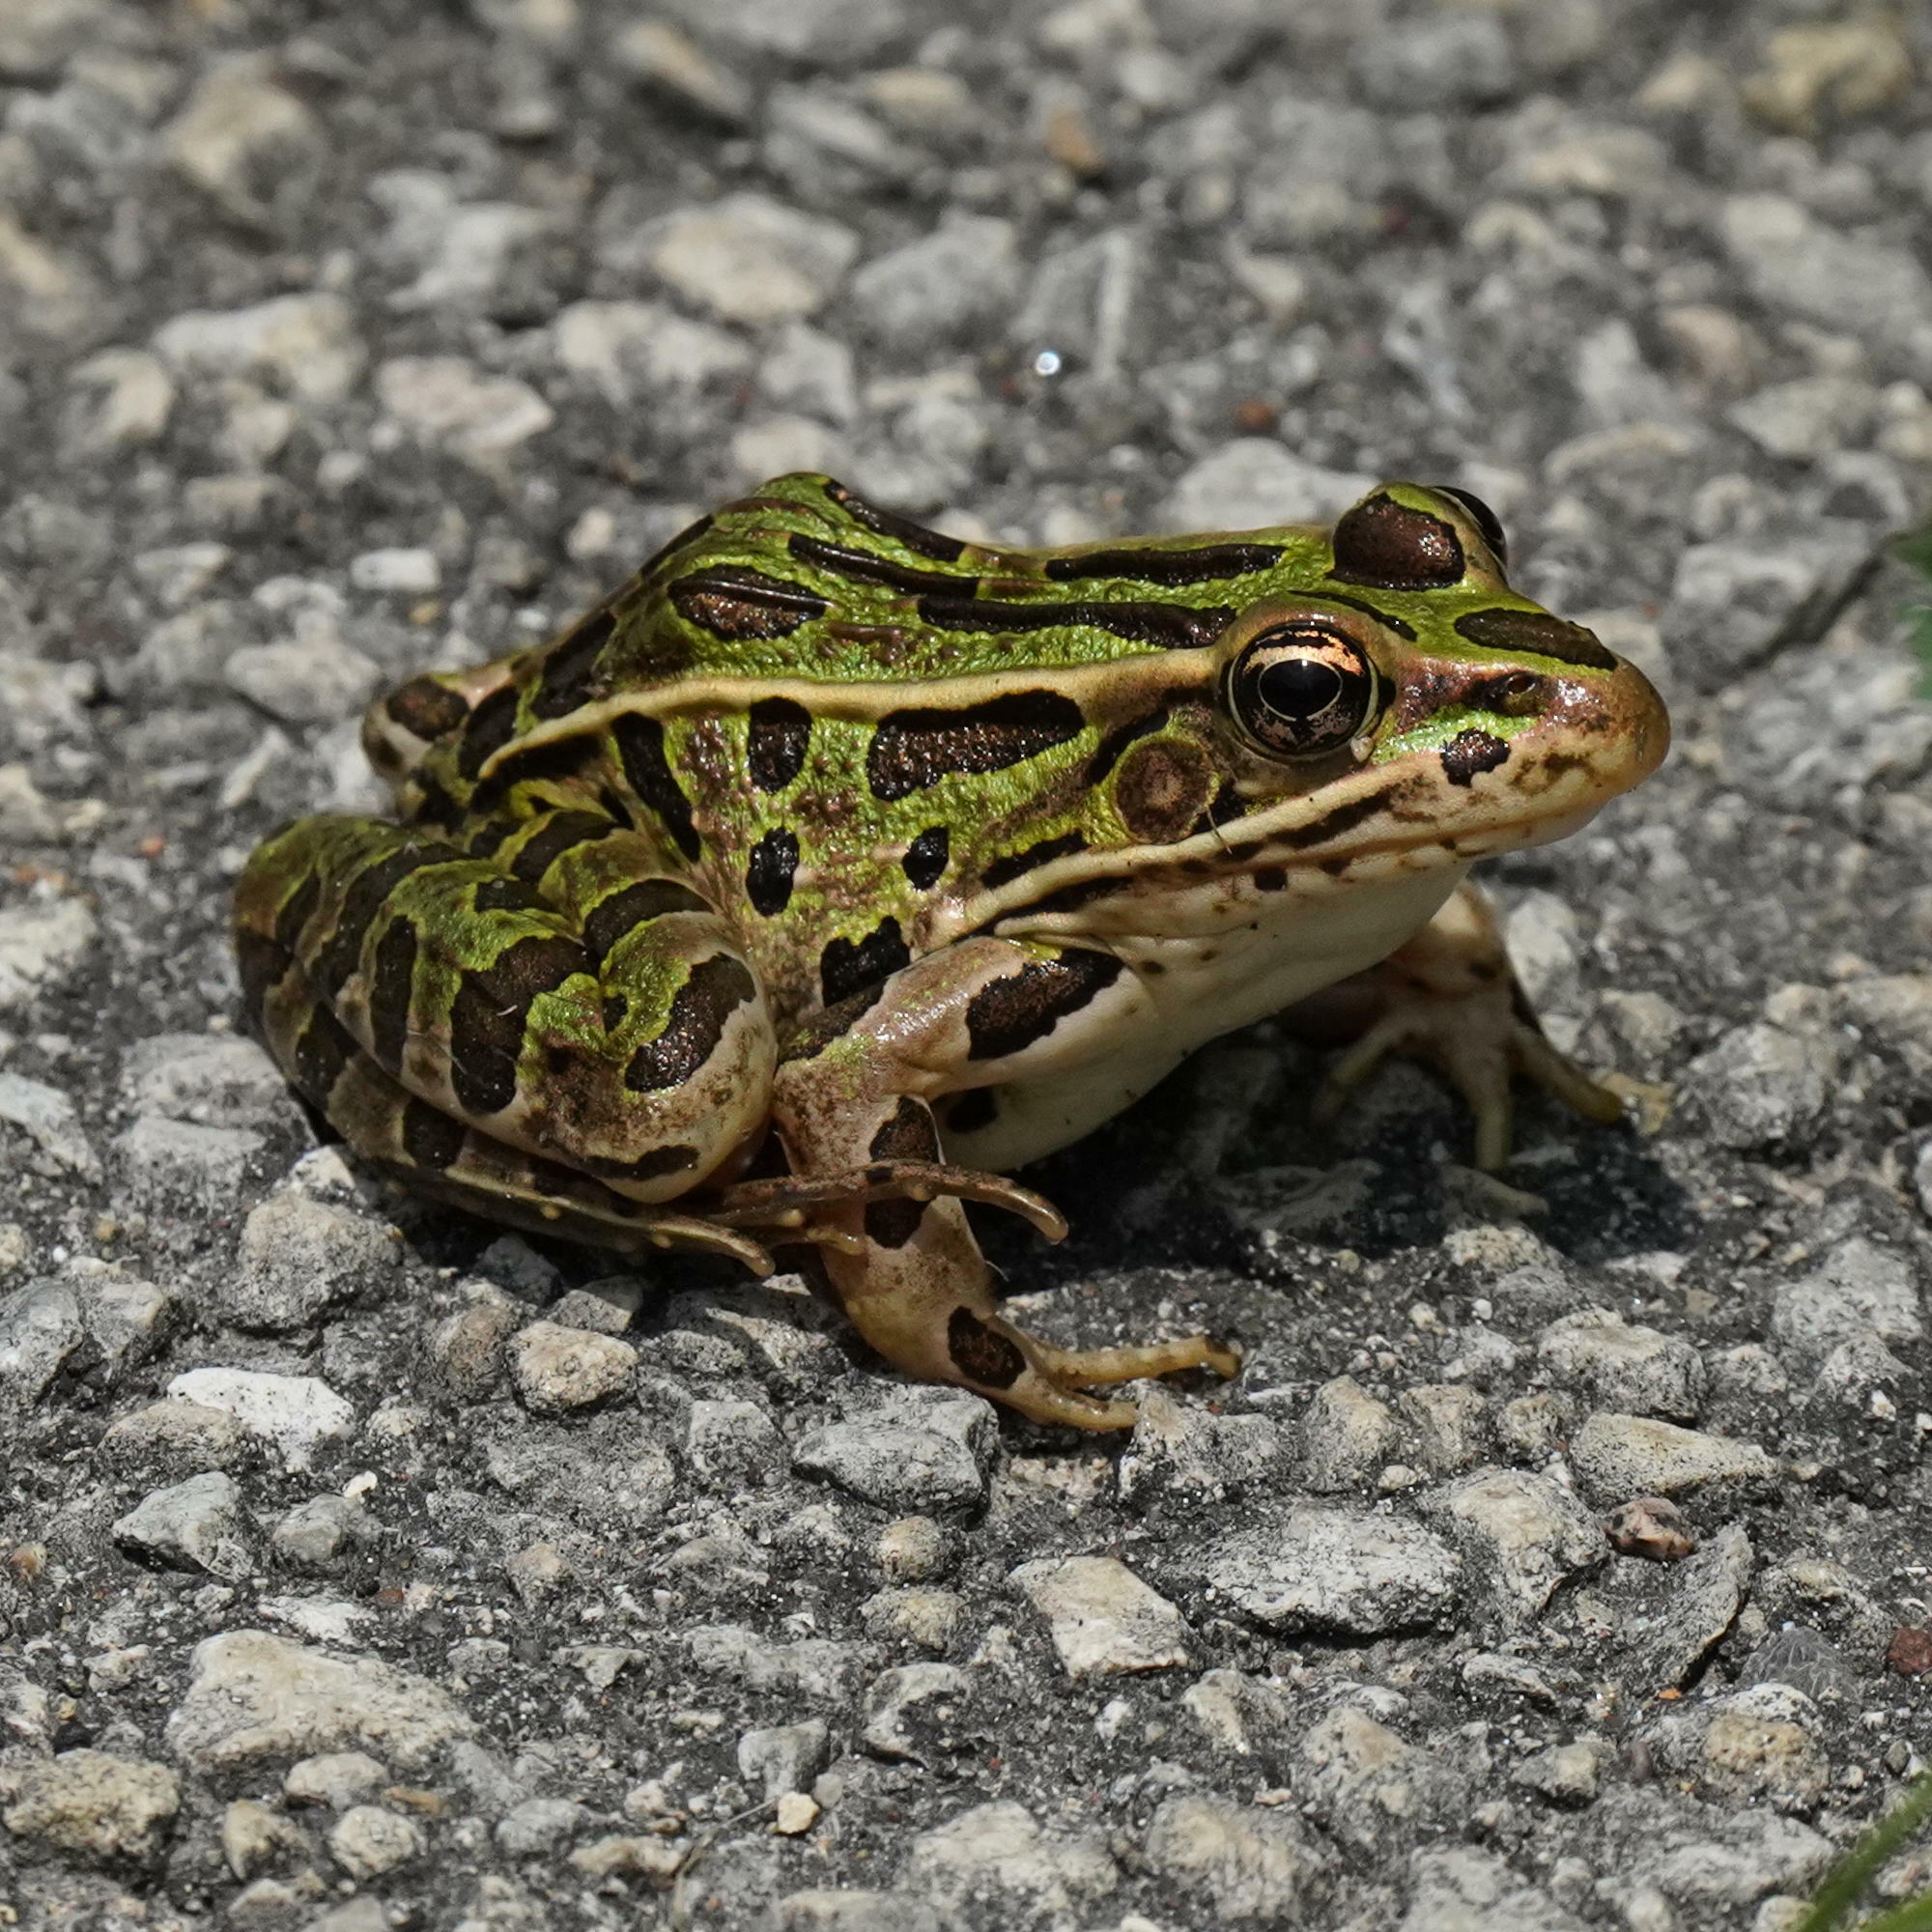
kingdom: Animalia
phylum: Chordata
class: Amphibia
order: Anura
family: Ranidae
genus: Lithobates
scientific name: Lithobates pipiens
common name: Northern leopard frog
